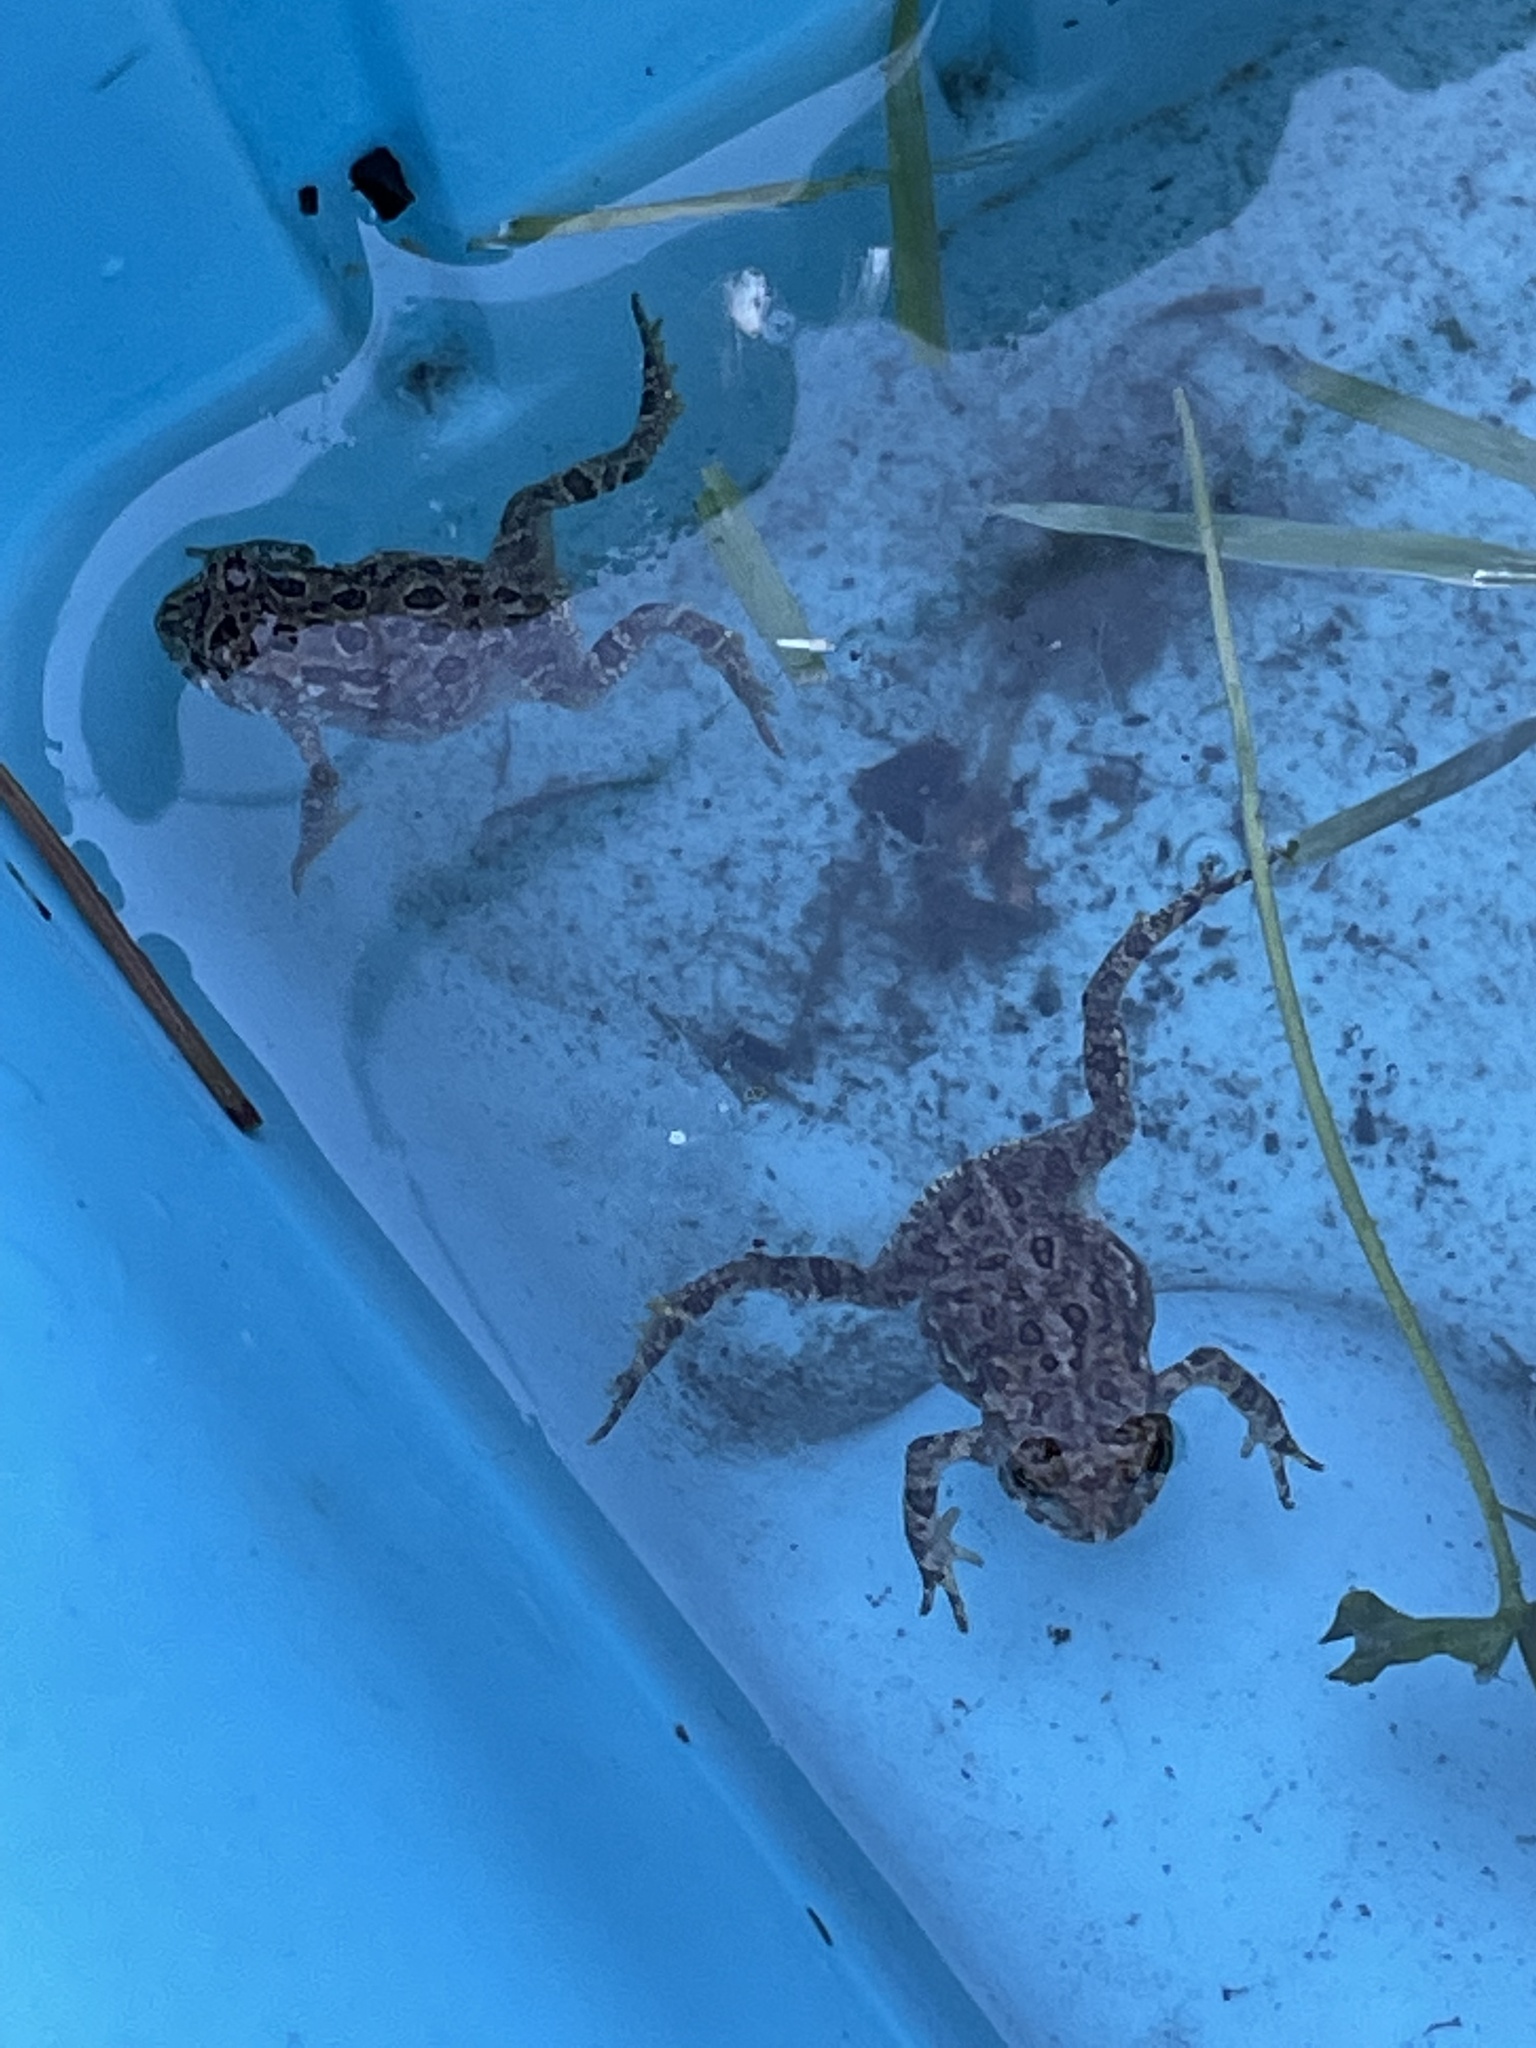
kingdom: Animalia
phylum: Chordata
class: Amphibia
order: Anura
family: Bufonidae
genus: Anaxyrus
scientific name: Anaxyrus americanus
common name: American toad
